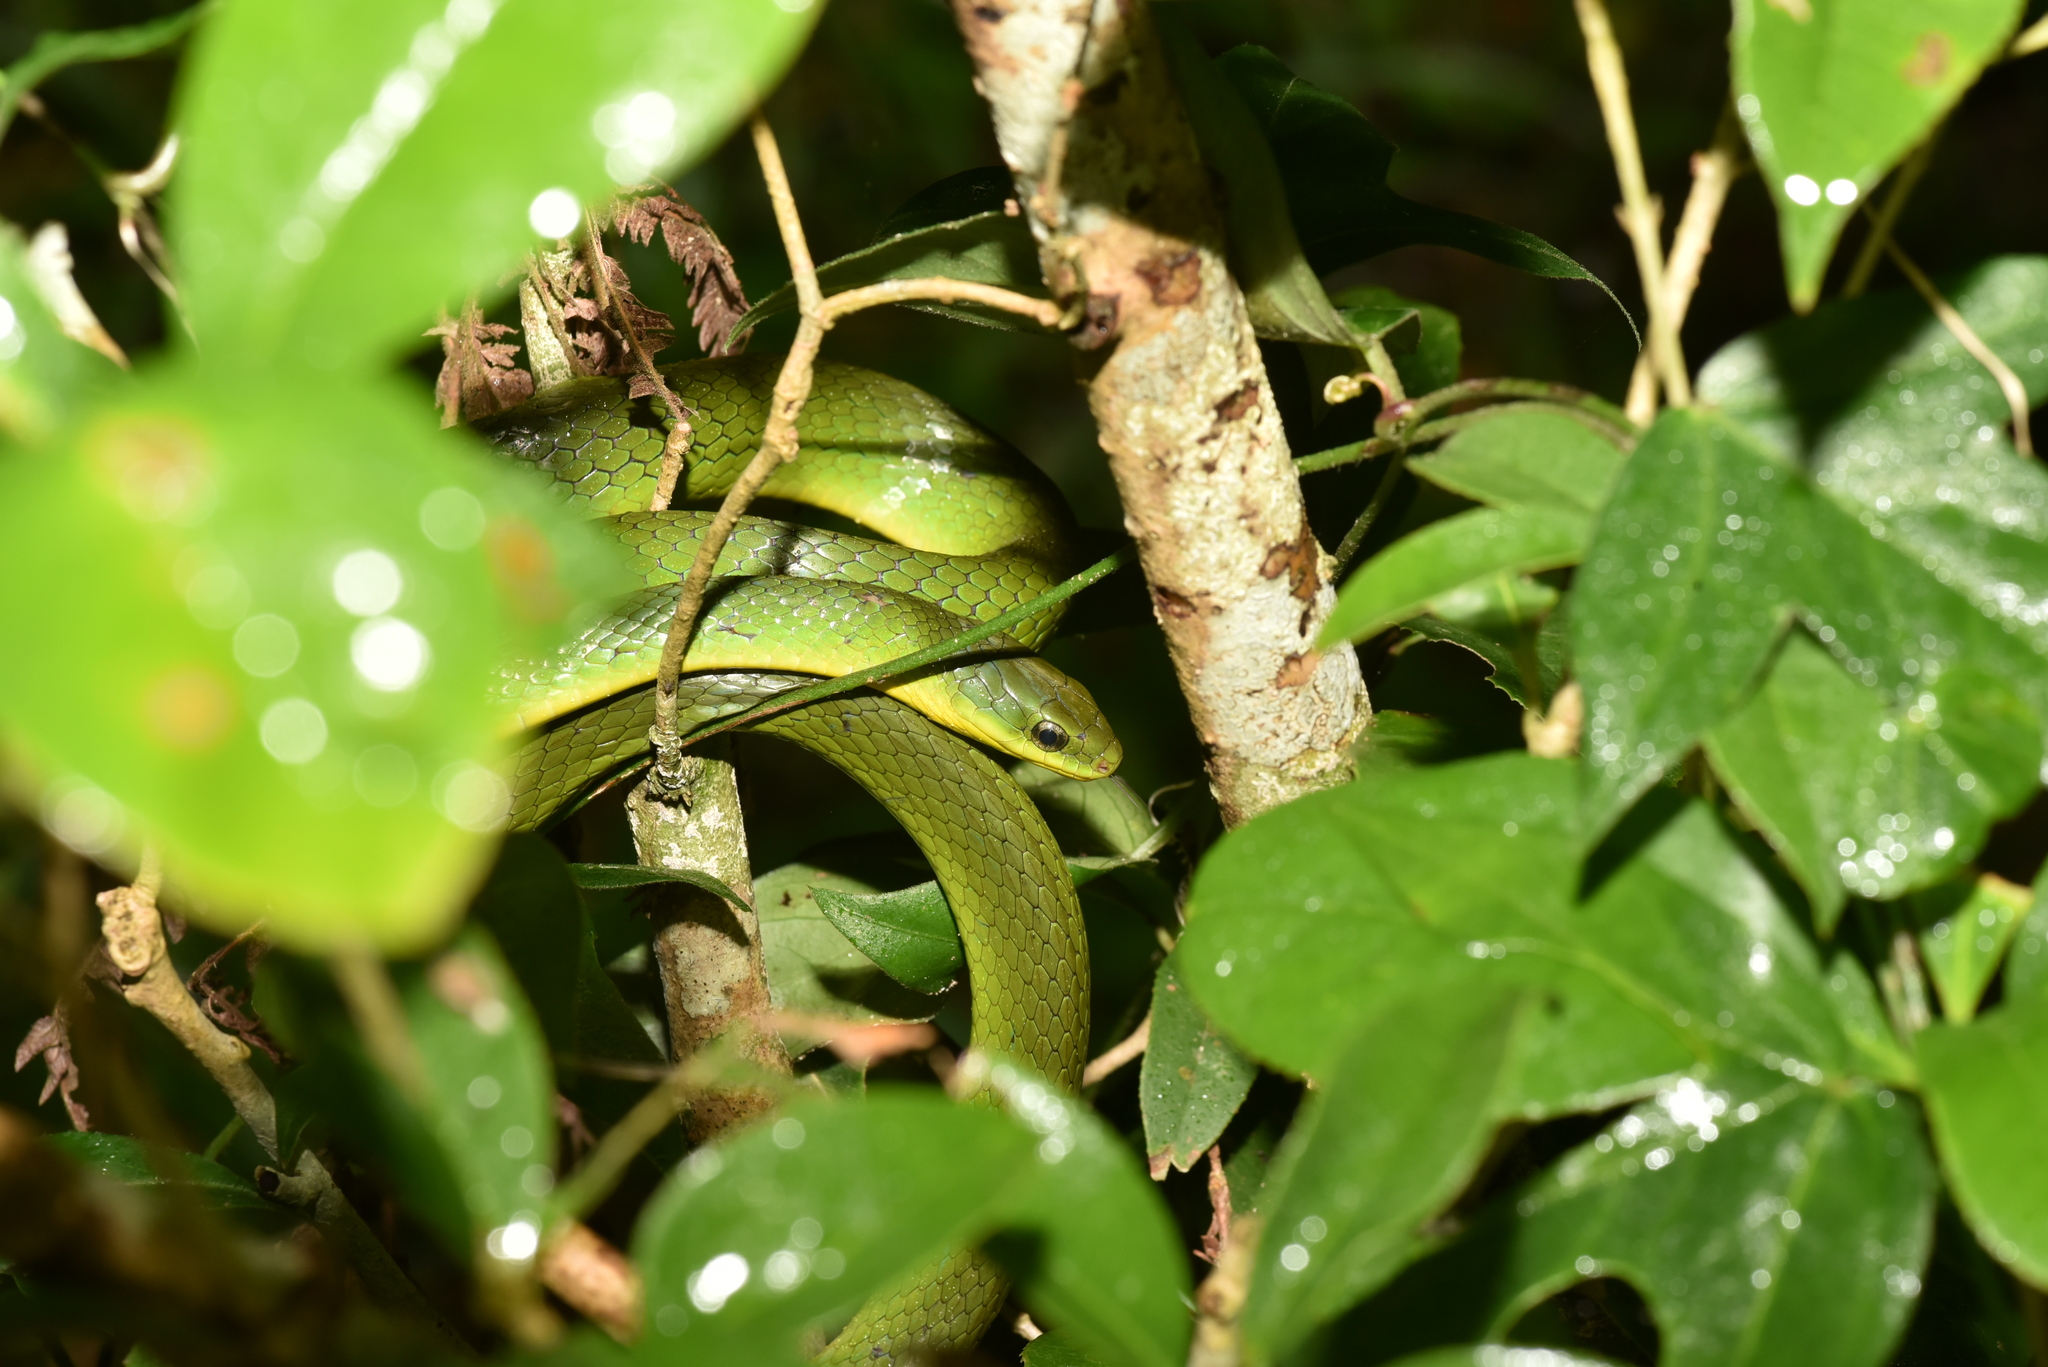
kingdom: Animalia
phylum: Chordata
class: Squamata
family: Colubridae
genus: Ptyas
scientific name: Ptyas major
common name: Chinese green snake
